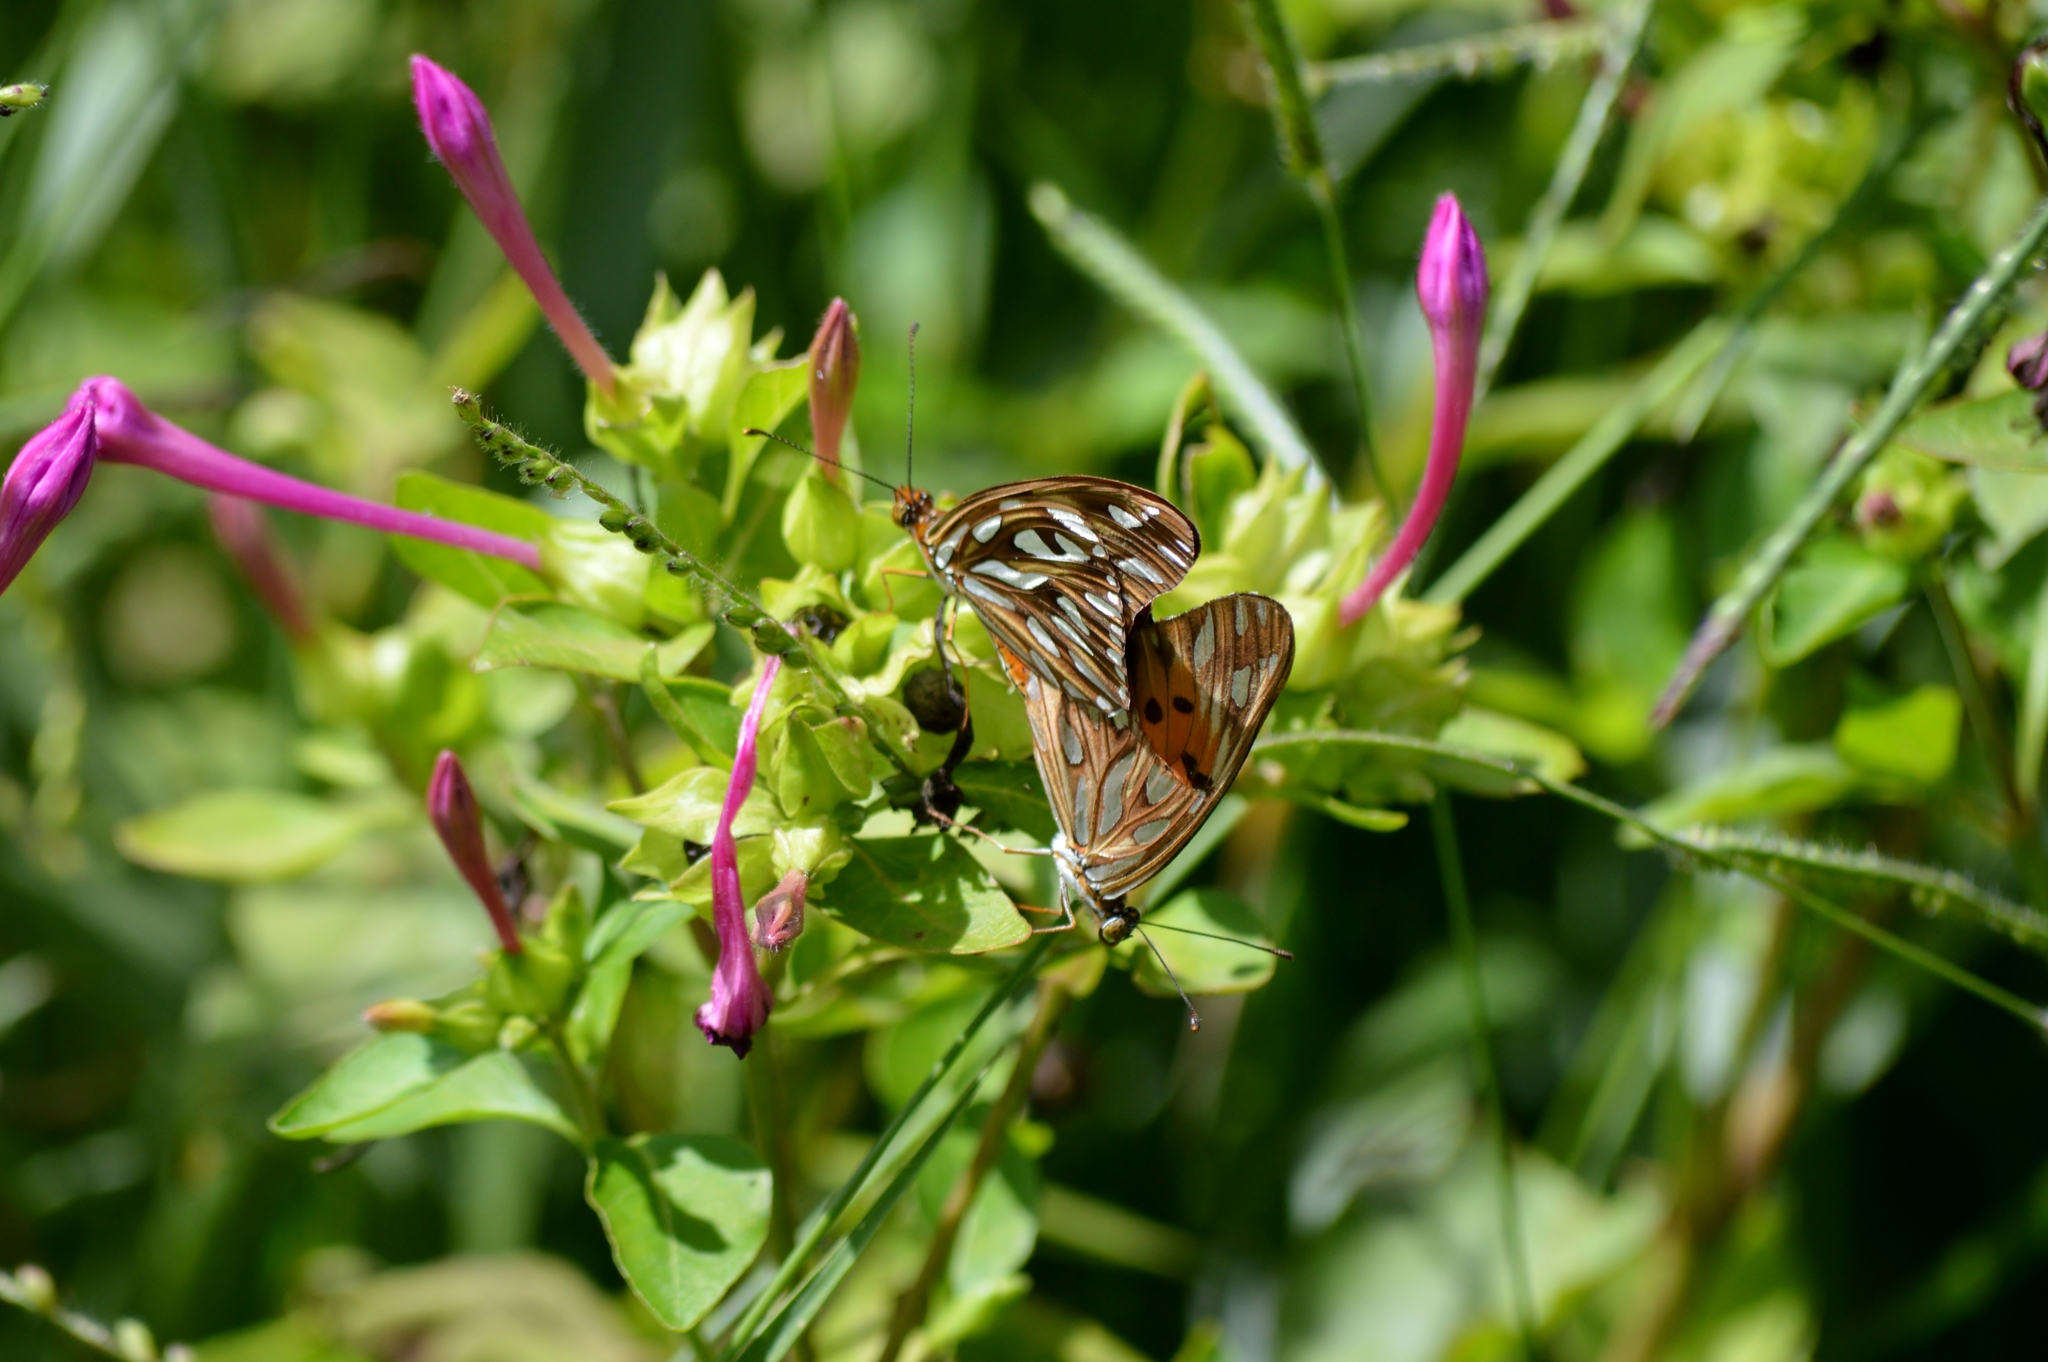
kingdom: Animalia
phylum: Arthropoda
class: Insecta
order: Lepidoptera
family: Nymphalidae
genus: Dione
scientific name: Dione vanillae
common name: Gulf fritillary
